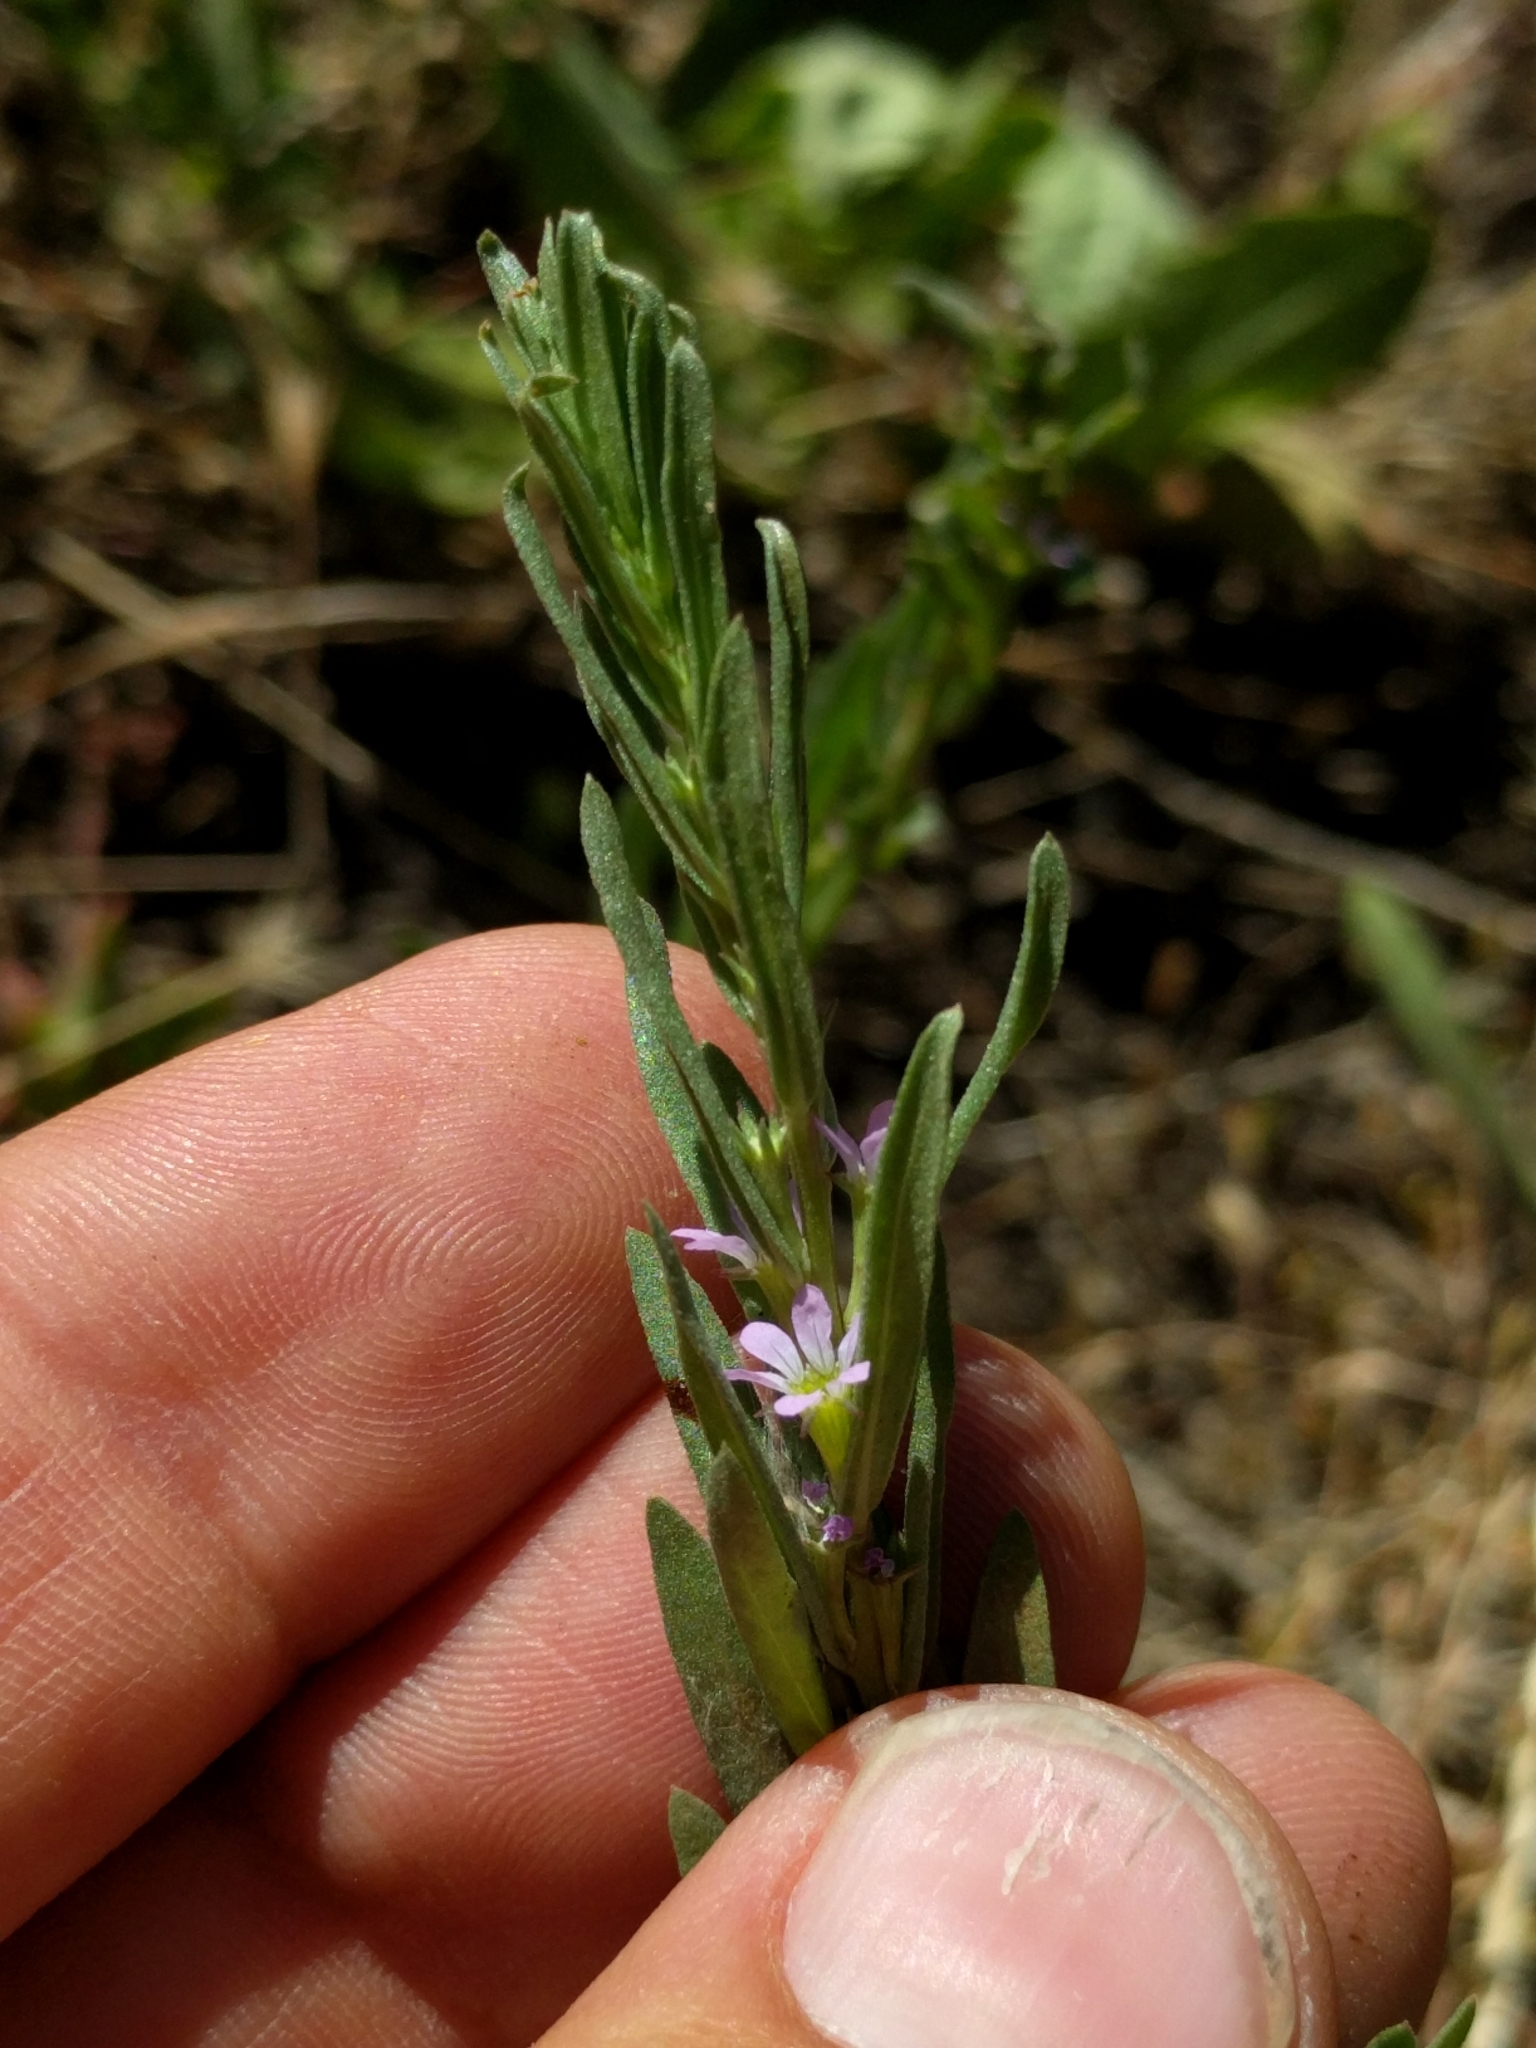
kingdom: Plantae
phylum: Tracheophyta
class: Magnoliopsida
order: Myrtales
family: Lythraceae
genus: Lythrum
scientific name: Lythrum hyssopifolia
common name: Grass-poly
